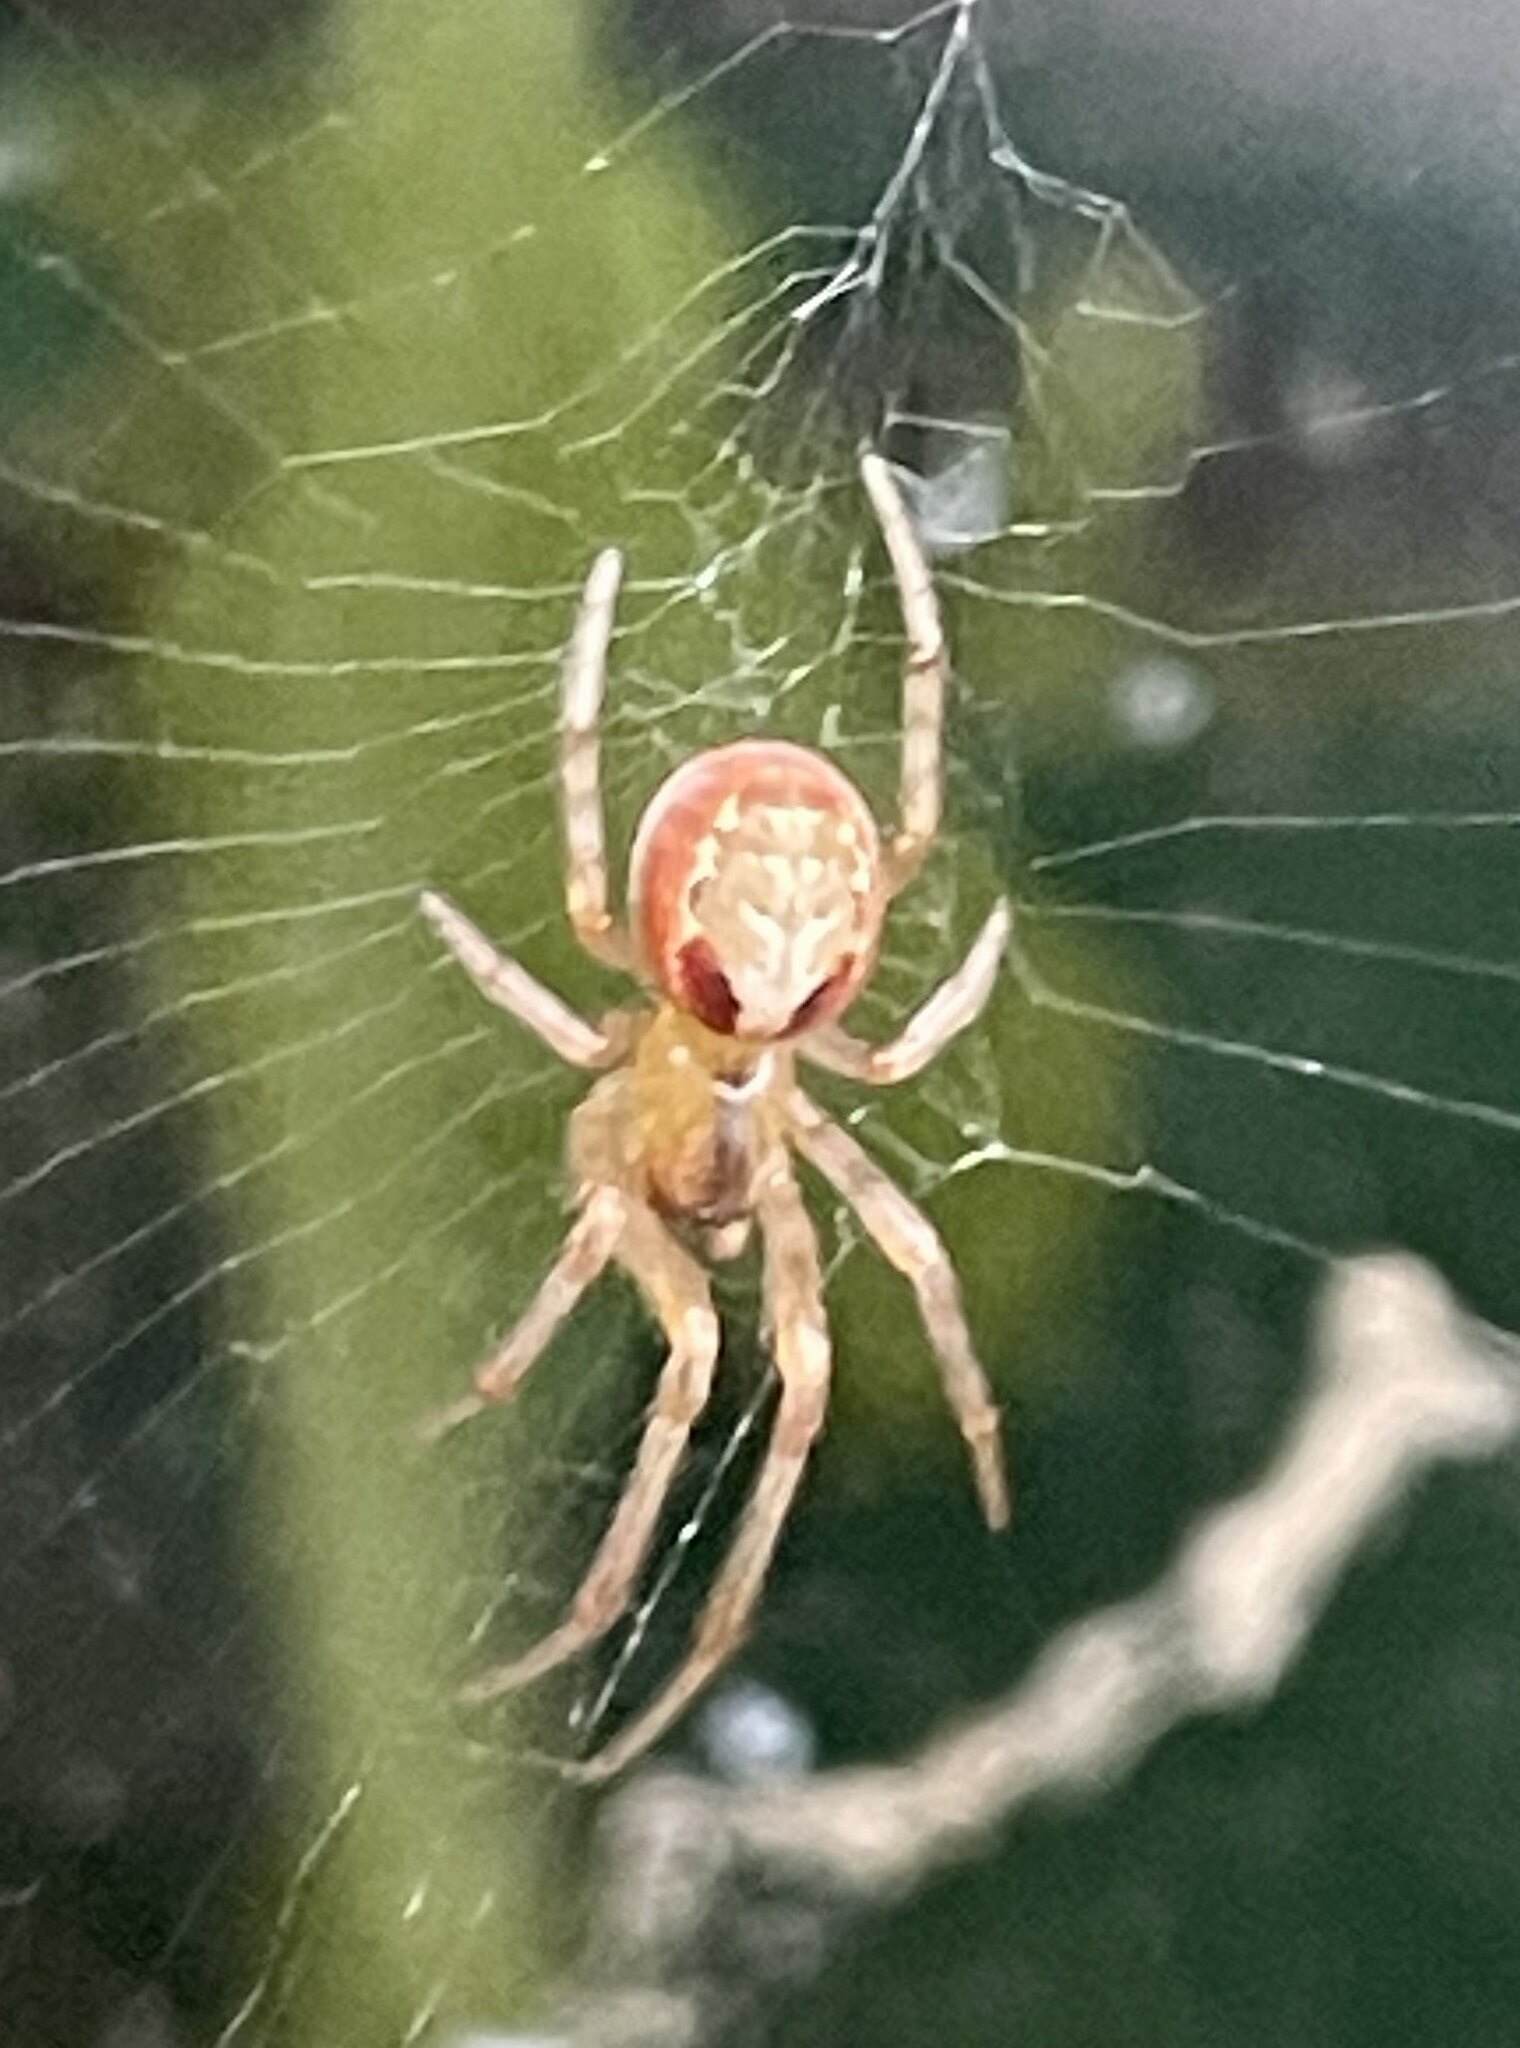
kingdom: Animalia
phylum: Arthropoda
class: Arachnida
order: Araneae
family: Araneidae
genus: Zygiella
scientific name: Zygiella atrica
